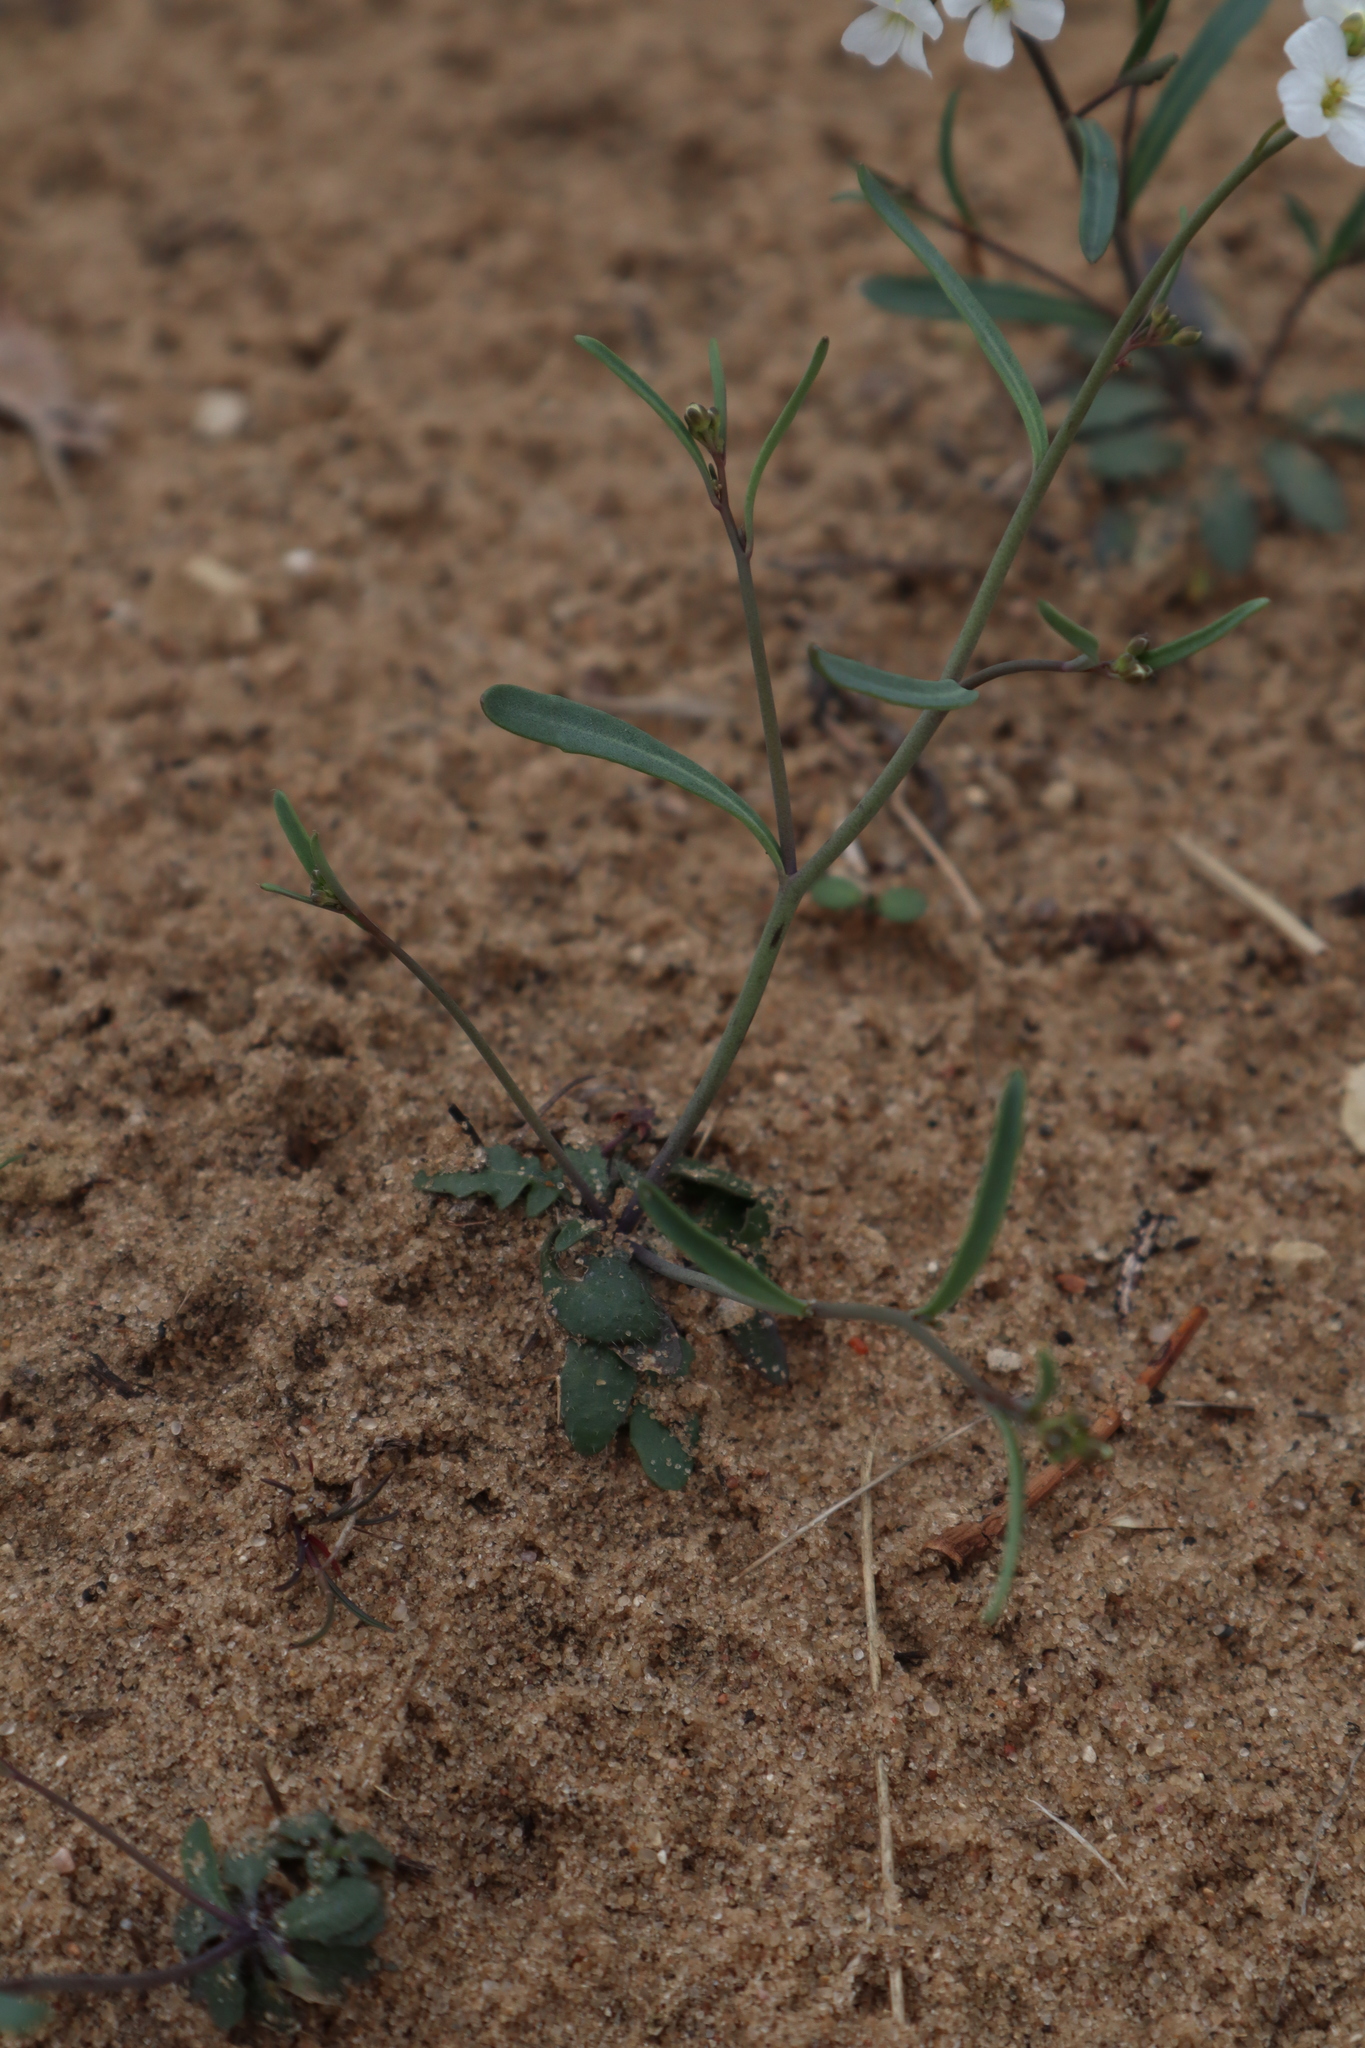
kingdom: Plantae
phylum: Tracheophyta
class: Magnoliopsida
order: Brassicales
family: Brassicaceae
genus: Arabidopsis
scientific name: Arabidopsis lyrata
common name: Lyrate rockcress
